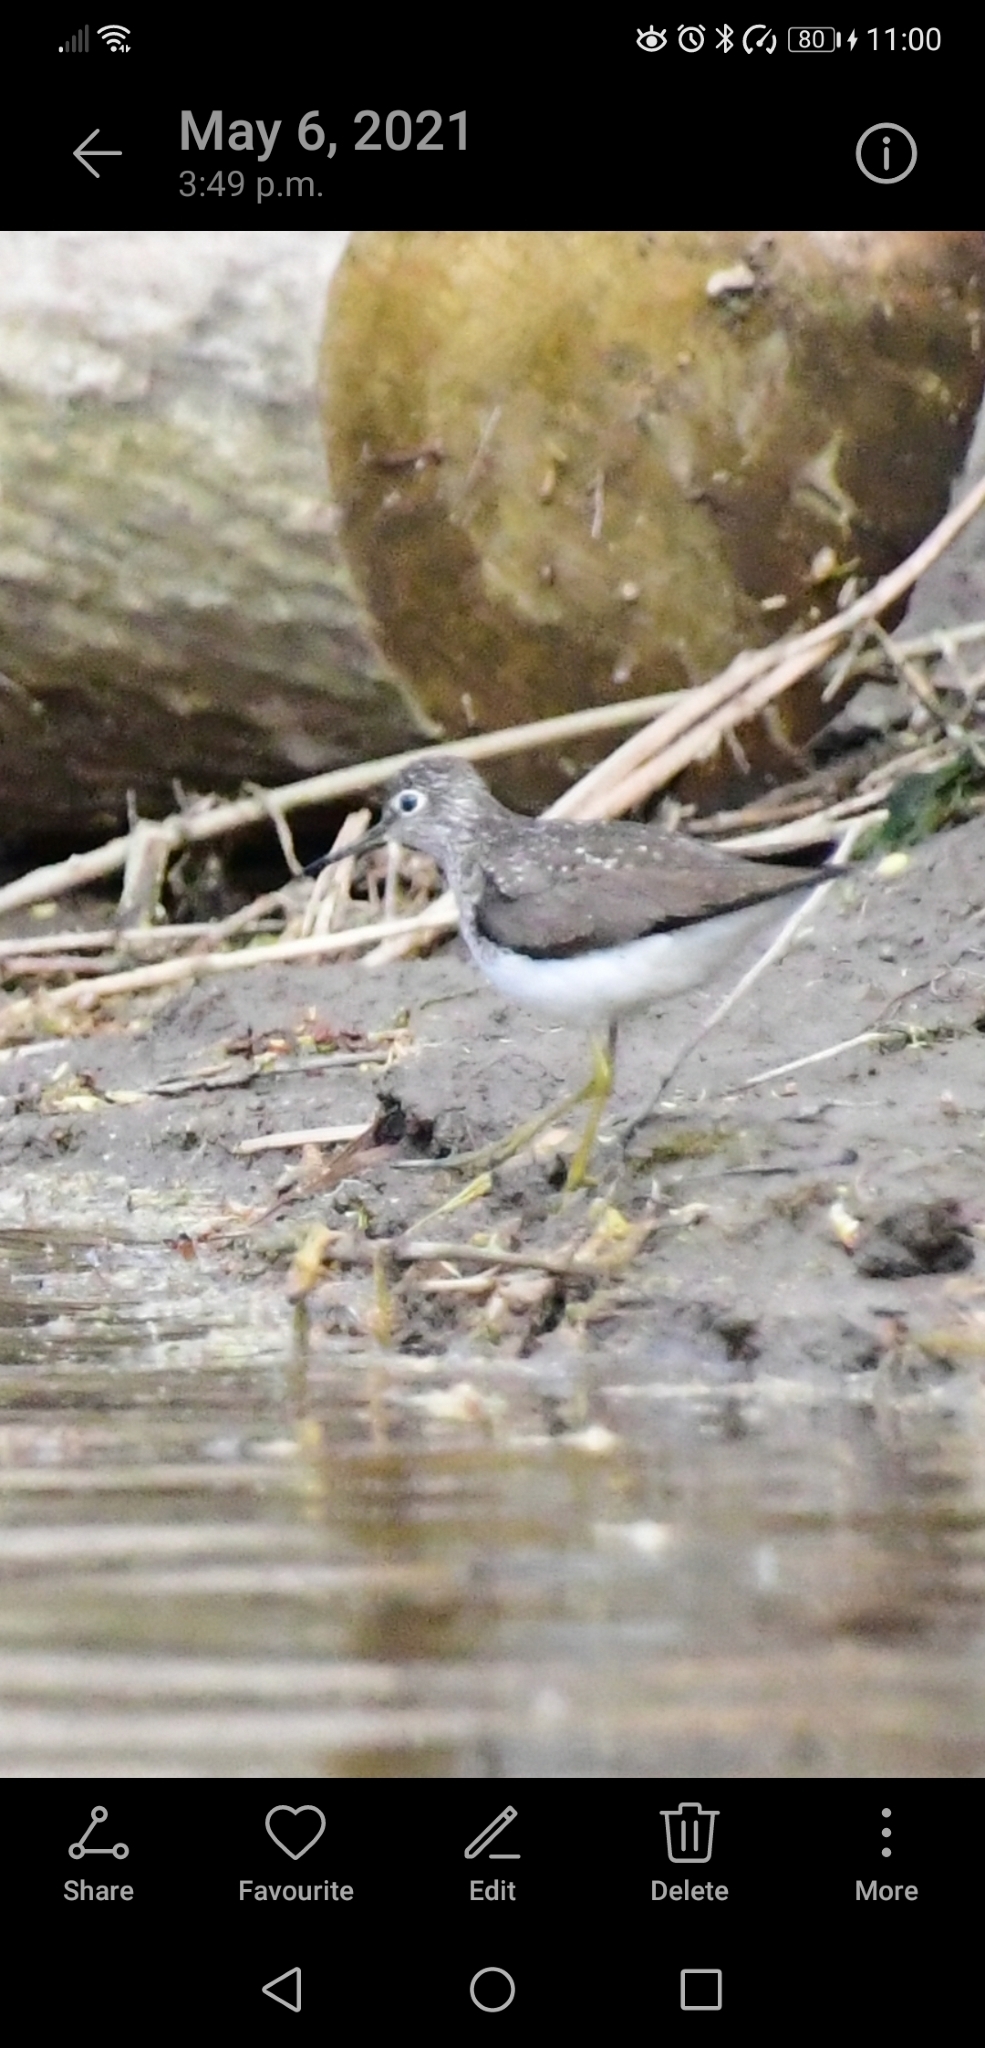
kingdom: Animalia
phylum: Chordata
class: Aves
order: Charadriiformes
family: Scolopacidae
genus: Tringa
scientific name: Tringa solitaria
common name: Solitary sandpiper
